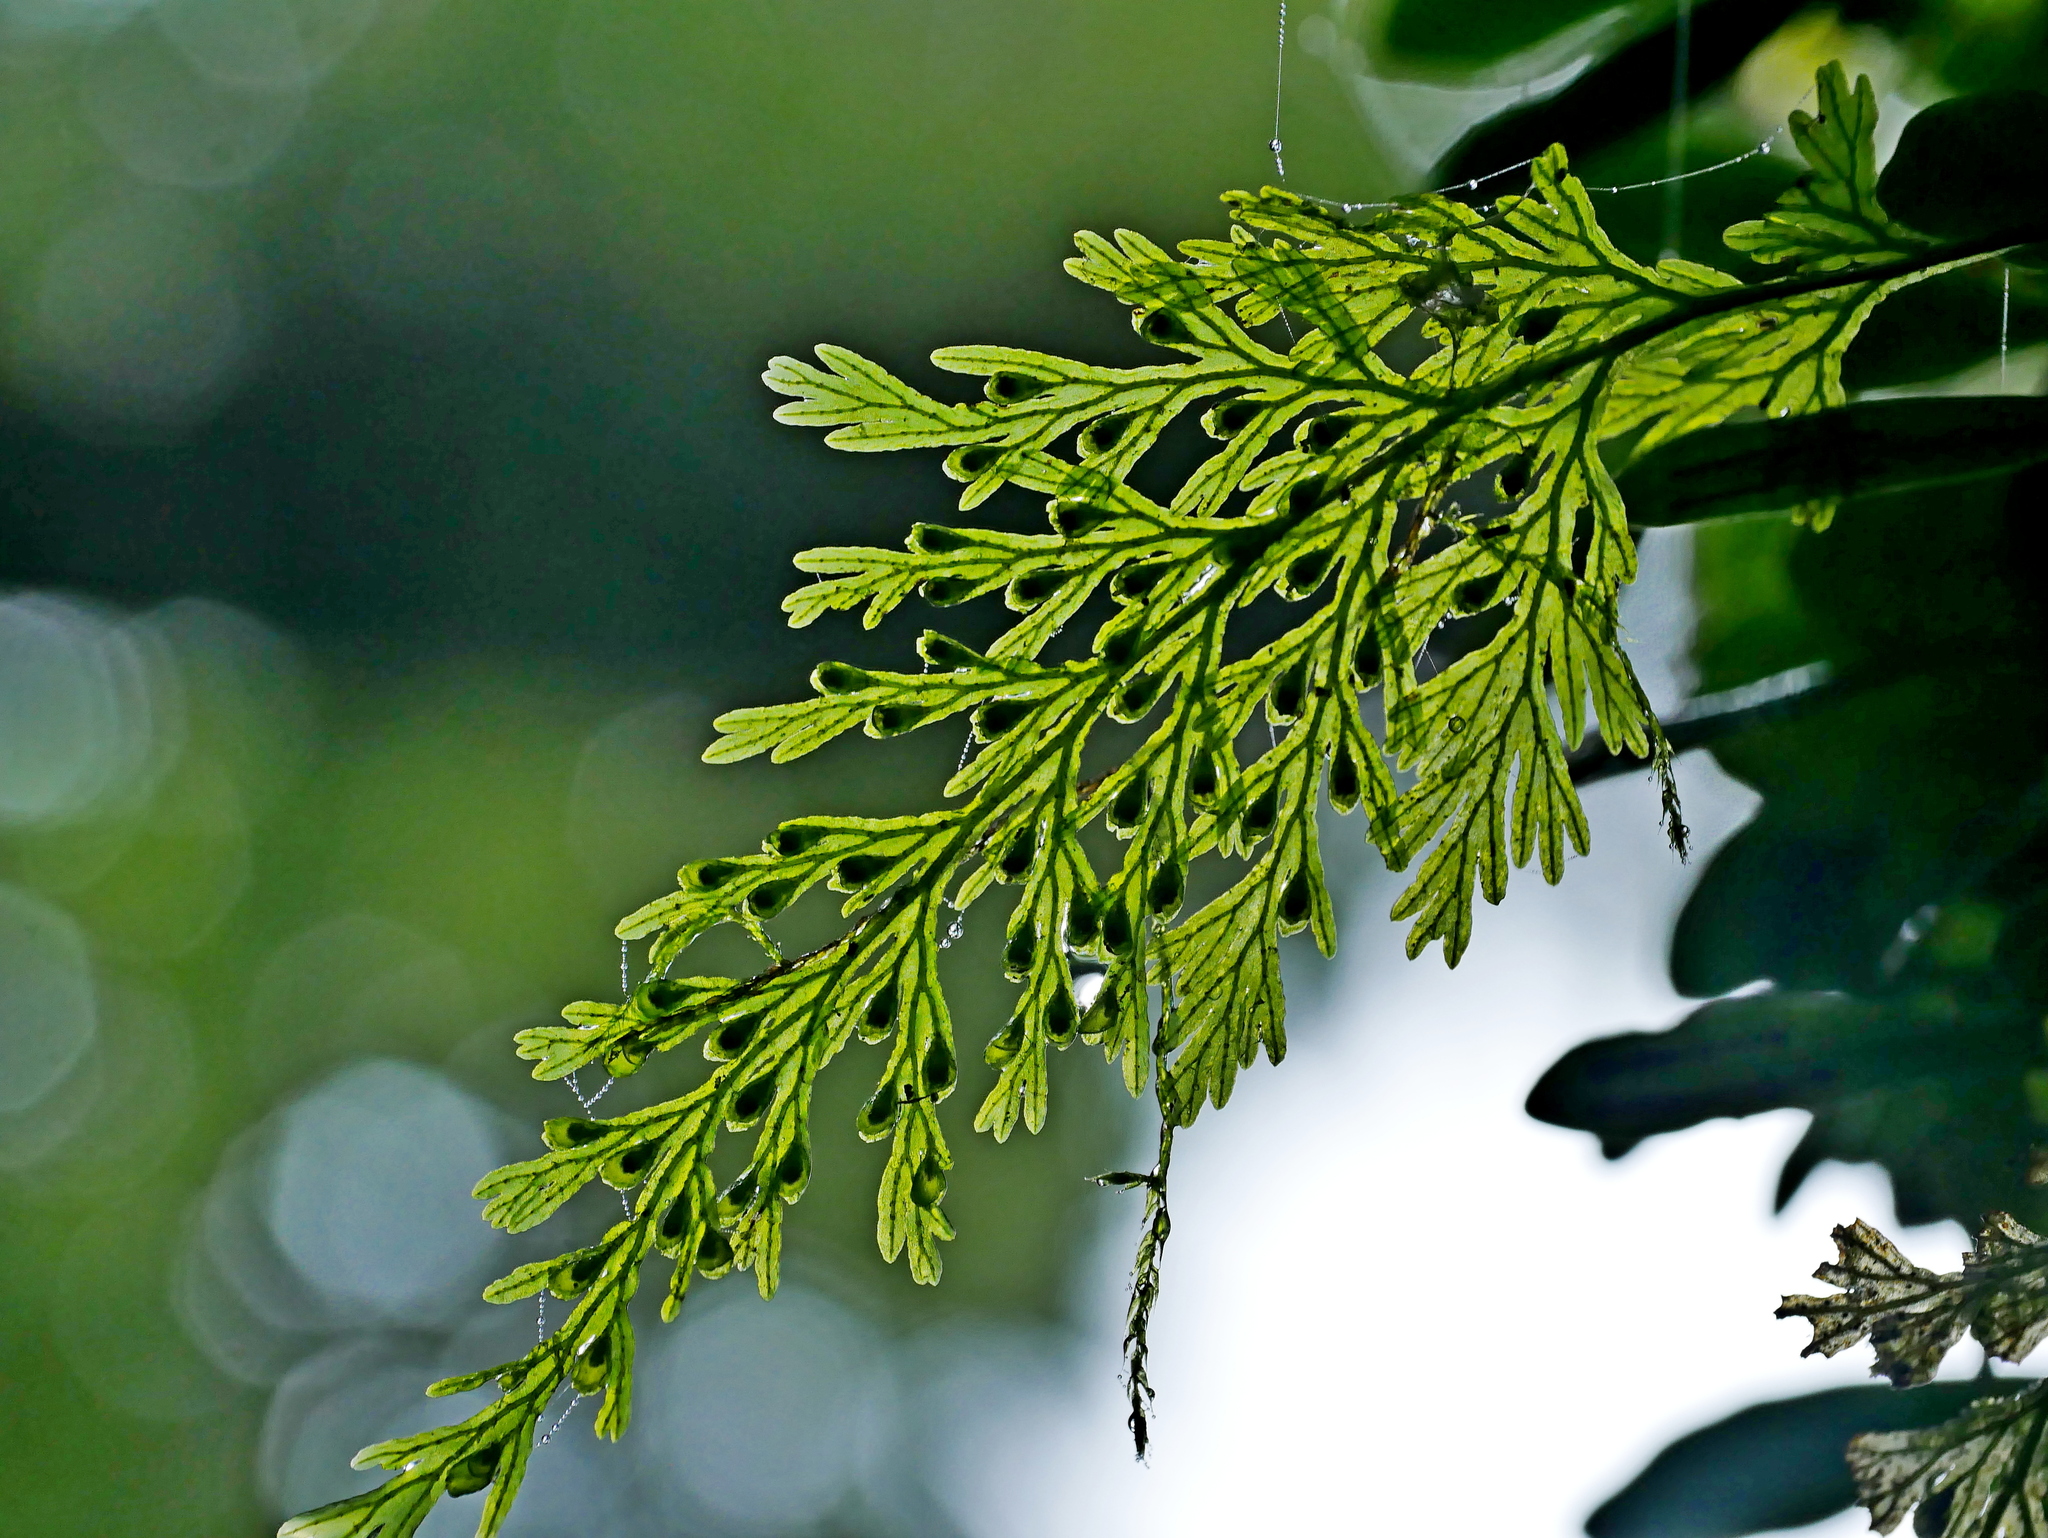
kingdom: Plantae
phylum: Tracheophyta
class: Polypodiopsida
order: Hymenophyllales
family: Hymenophyllaceae
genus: Crepidomanes
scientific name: Crepidomanes latealatum
